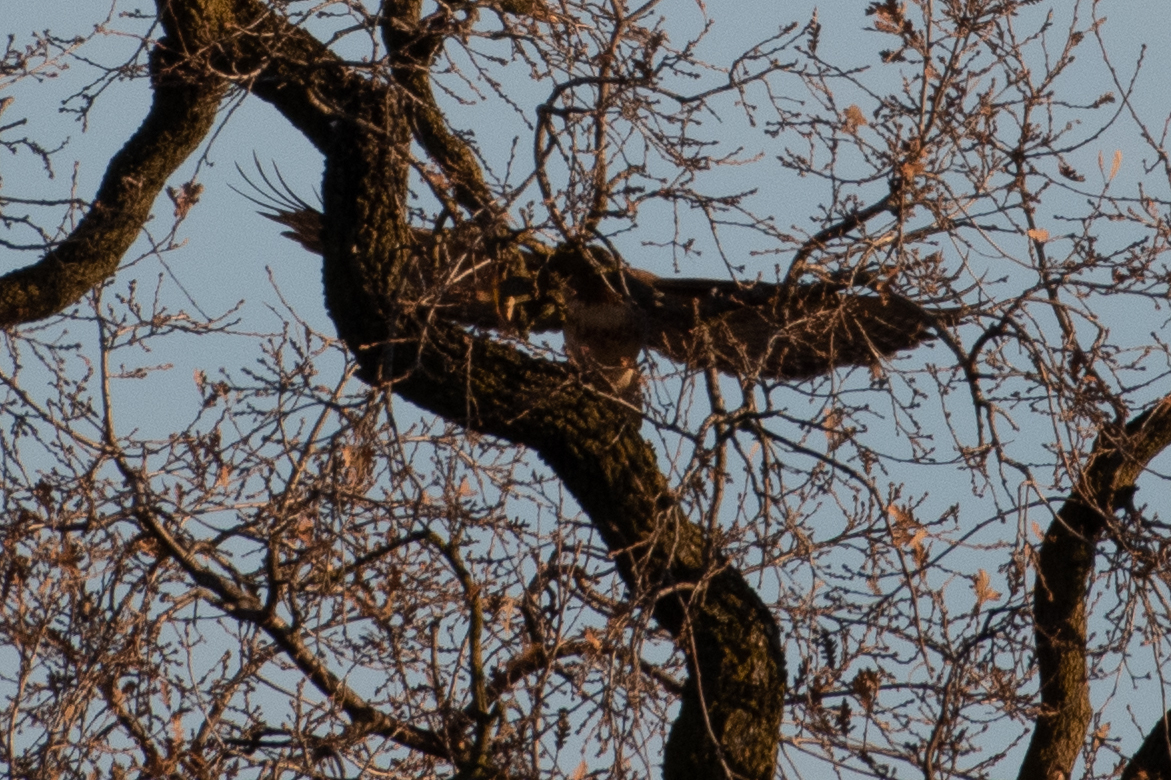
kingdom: Animalia
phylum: Chordata
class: Aves
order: Accipitriformes
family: Accipitridae
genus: Buteo
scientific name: Buteo jamaicensis
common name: Red-tailed hawk
